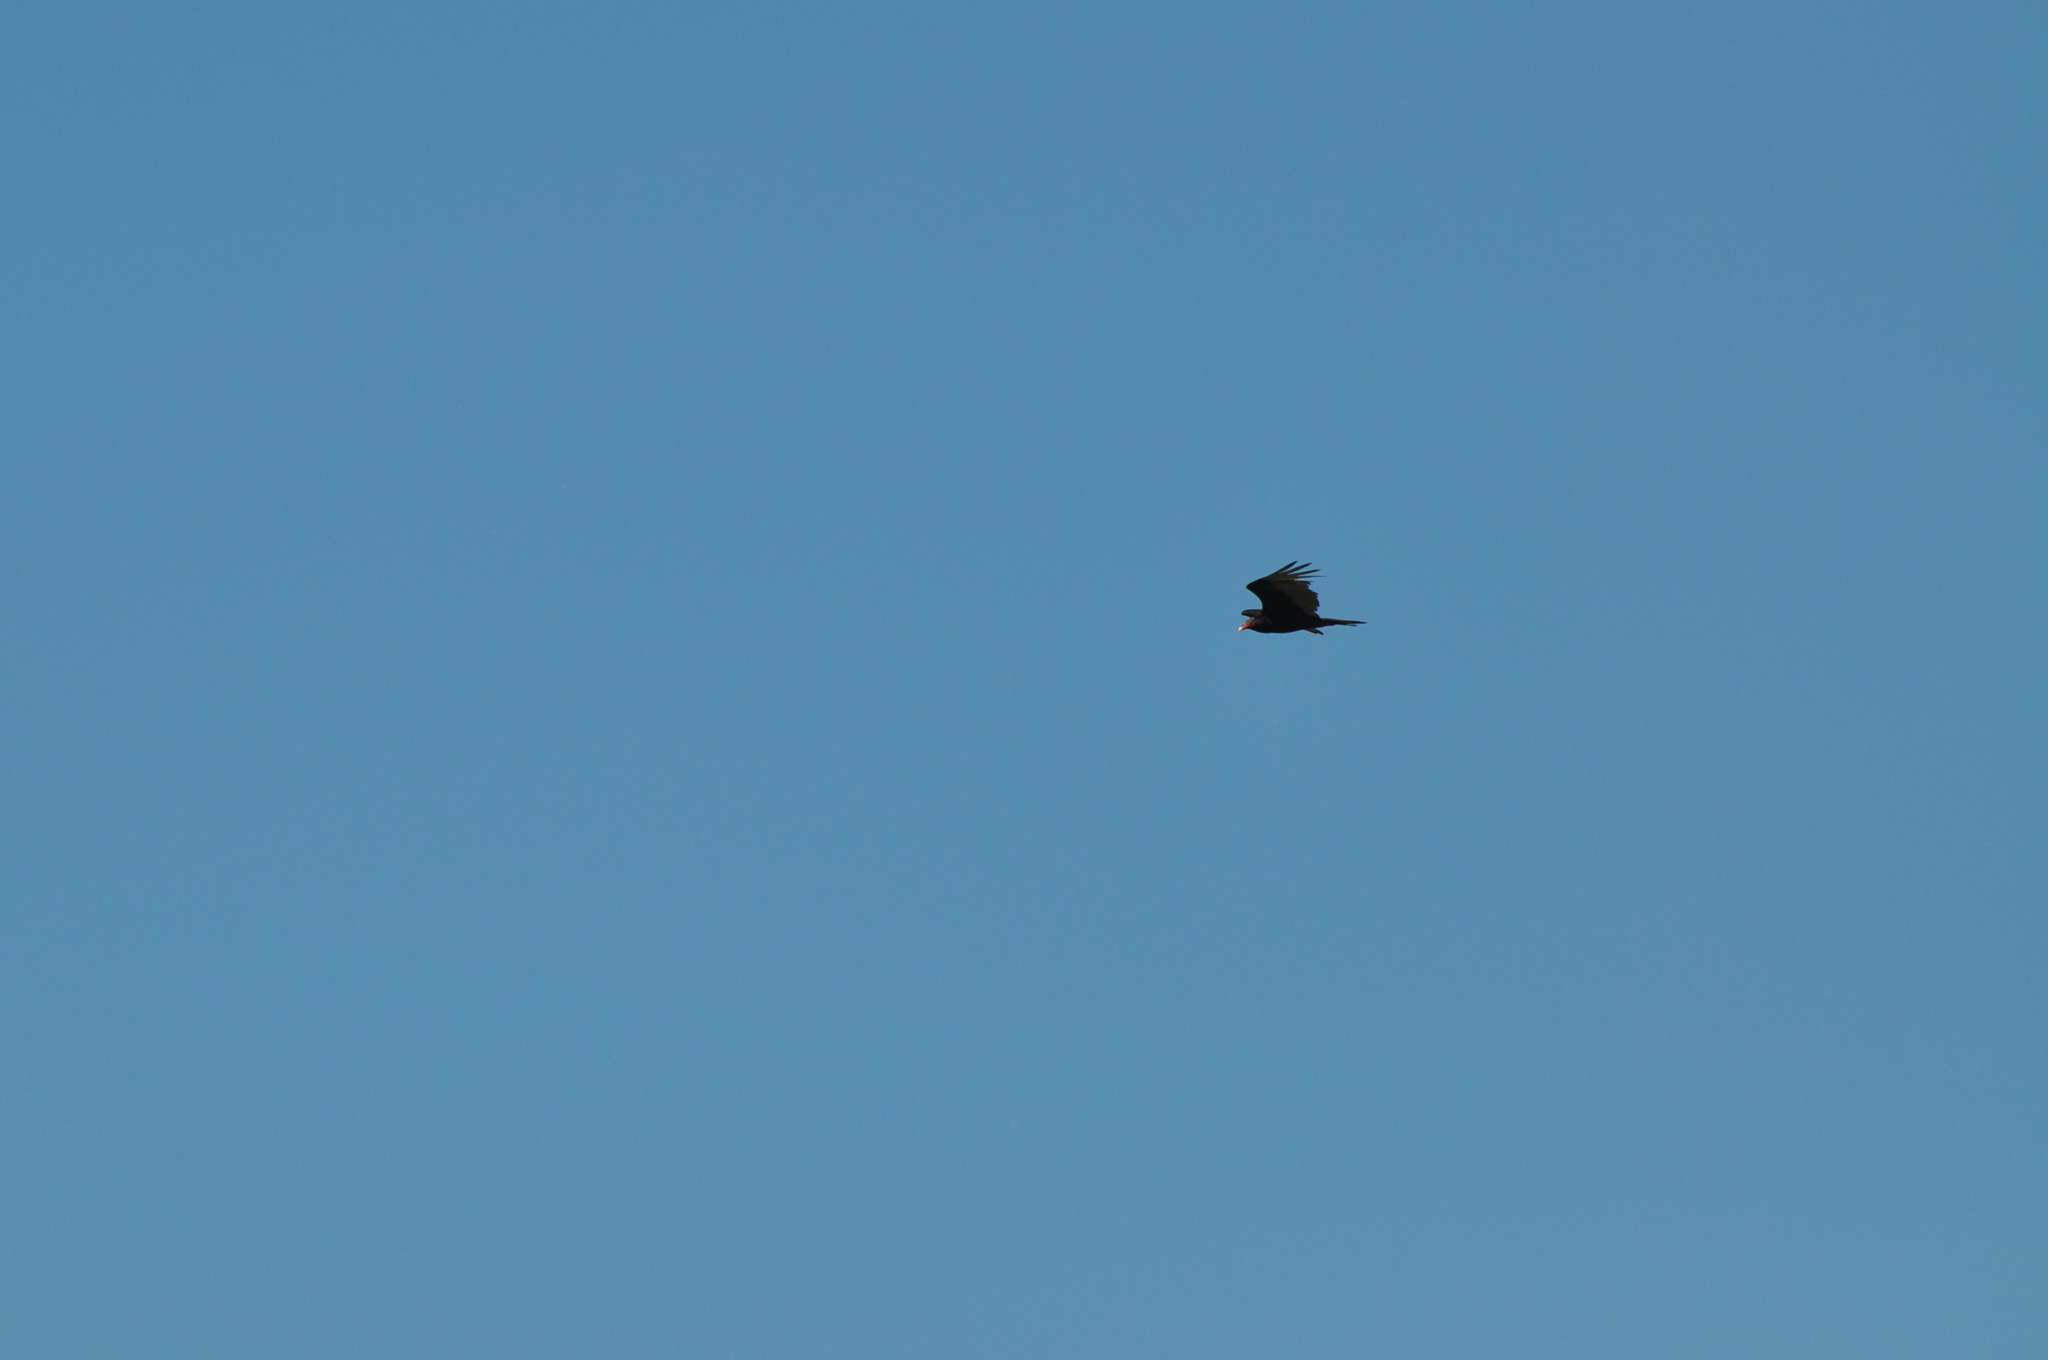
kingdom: Animalia
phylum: Chordata
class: Aves
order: Accipitriformes
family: Cathartidae
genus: Cathartes
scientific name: Cathartes aura
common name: Turkey vulture
